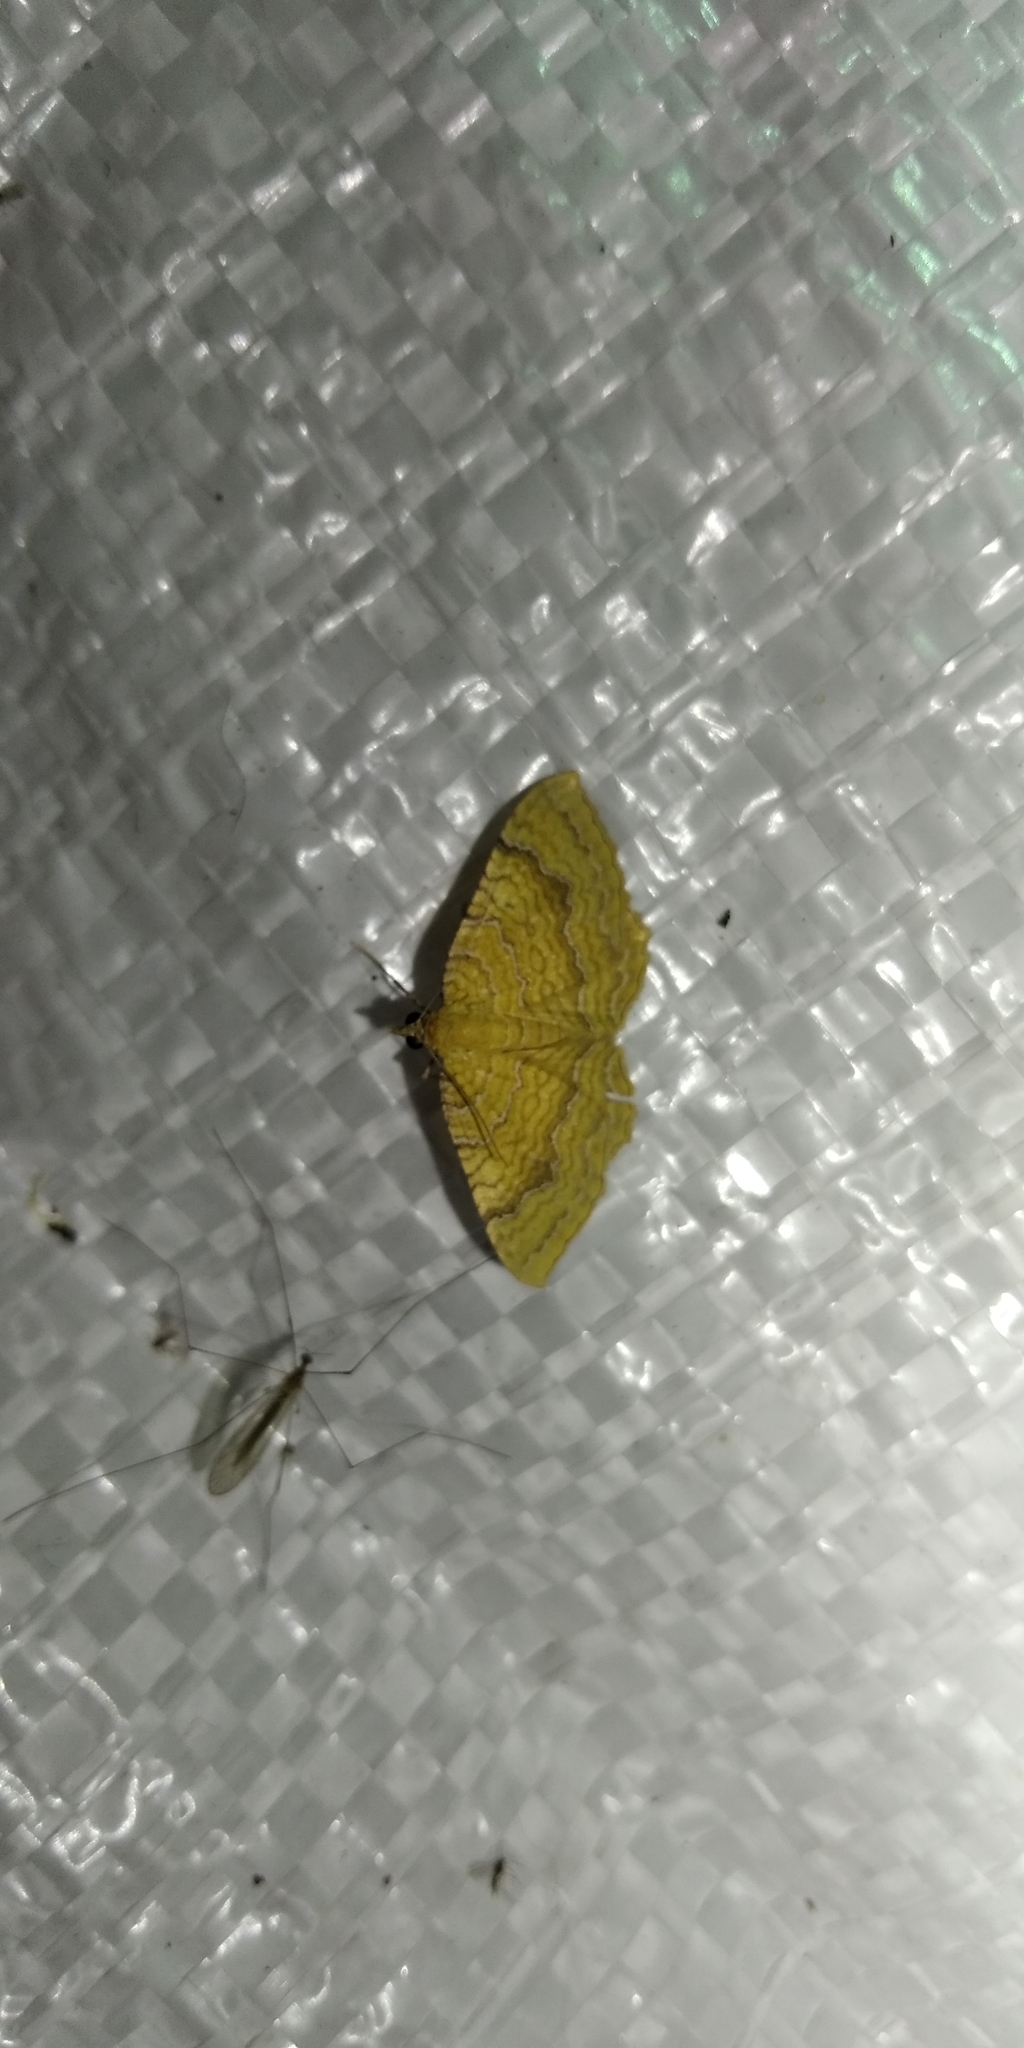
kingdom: Animalia
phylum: Arthropoda
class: Insecta
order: Lepidoptera
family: Geometridae
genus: Camptogramma
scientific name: Camptogramma bilineata
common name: Yellow shell
